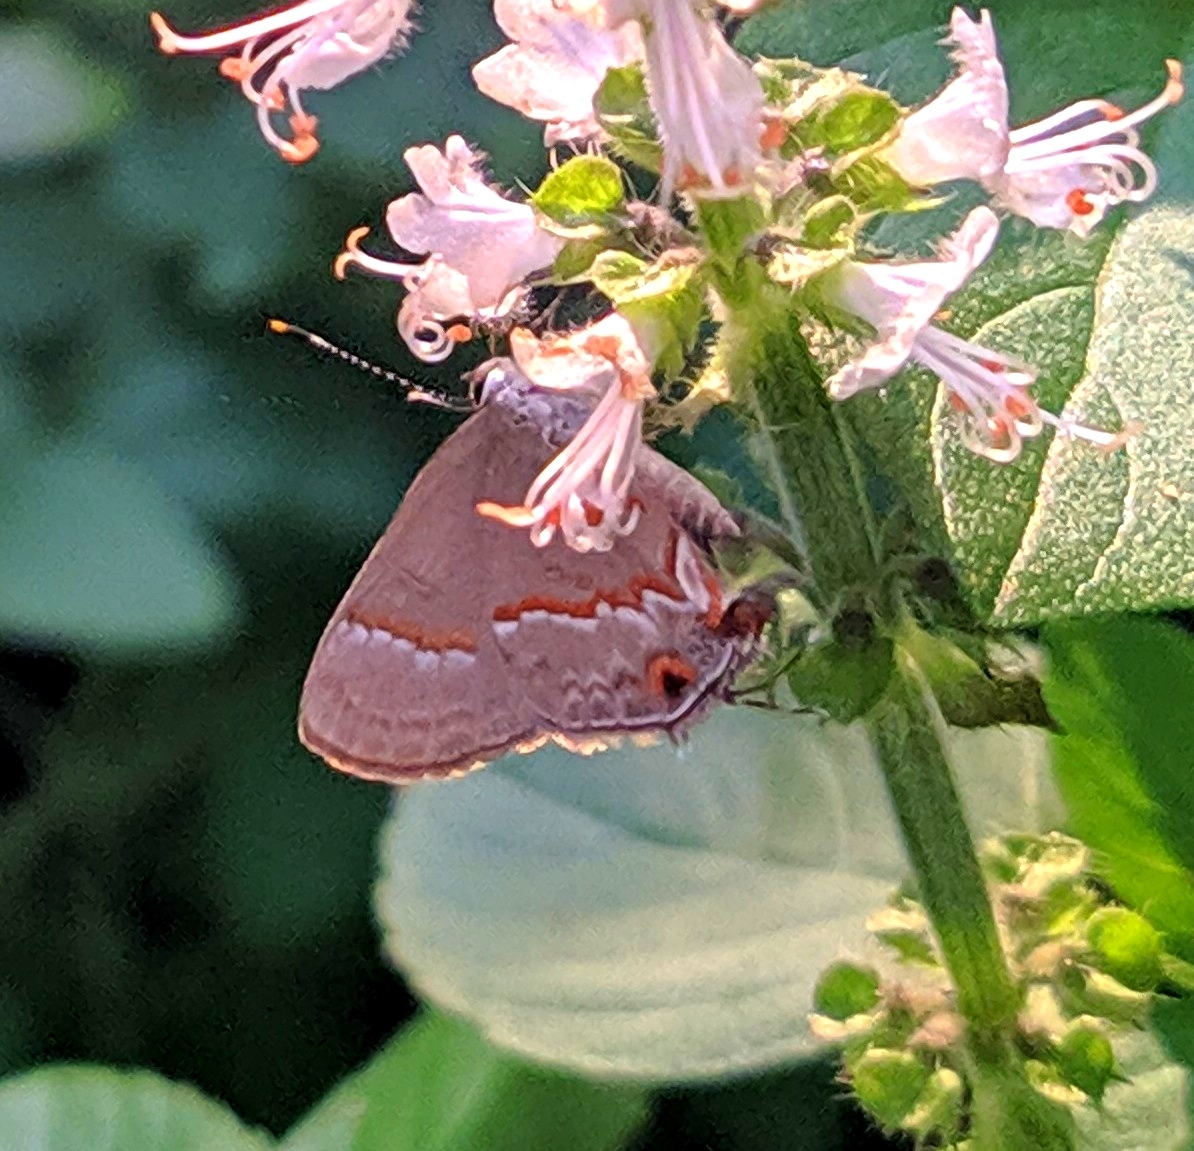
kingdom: Animalia
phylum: Arthropoda
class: Insecta
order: Lepidoptera
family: Lycaenidae
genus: Electrostrymon
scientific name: Electrostrymon endymion
